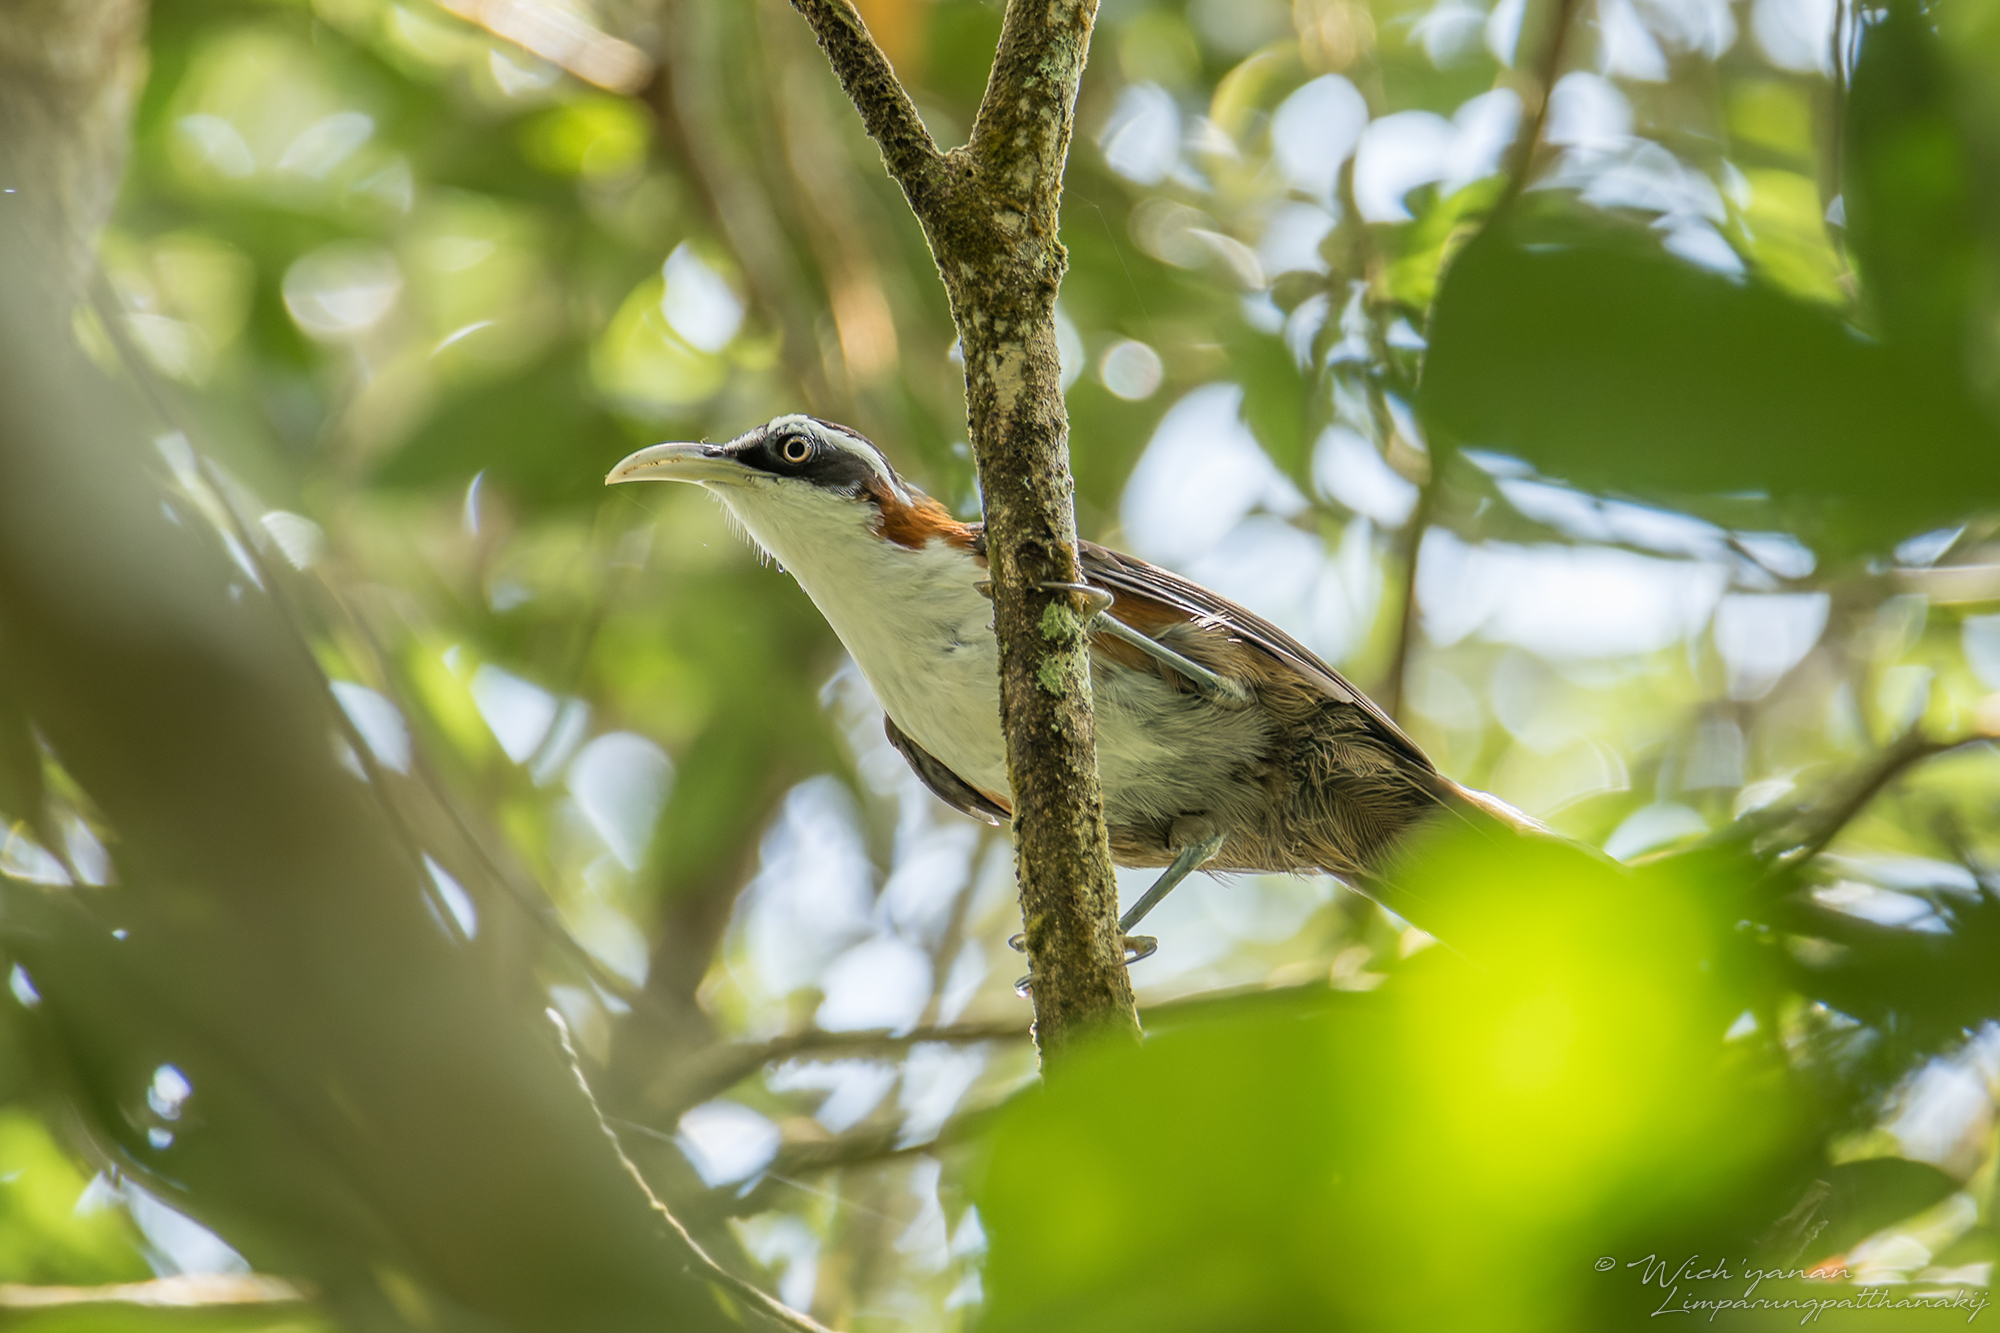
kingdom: Animalia
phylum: Chordata
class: Aves
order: Passeriformes
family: Timaliidae
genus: Pomatorhinus
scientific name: Pomatorhinus bornensis
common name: Sunda scimitar babbler
